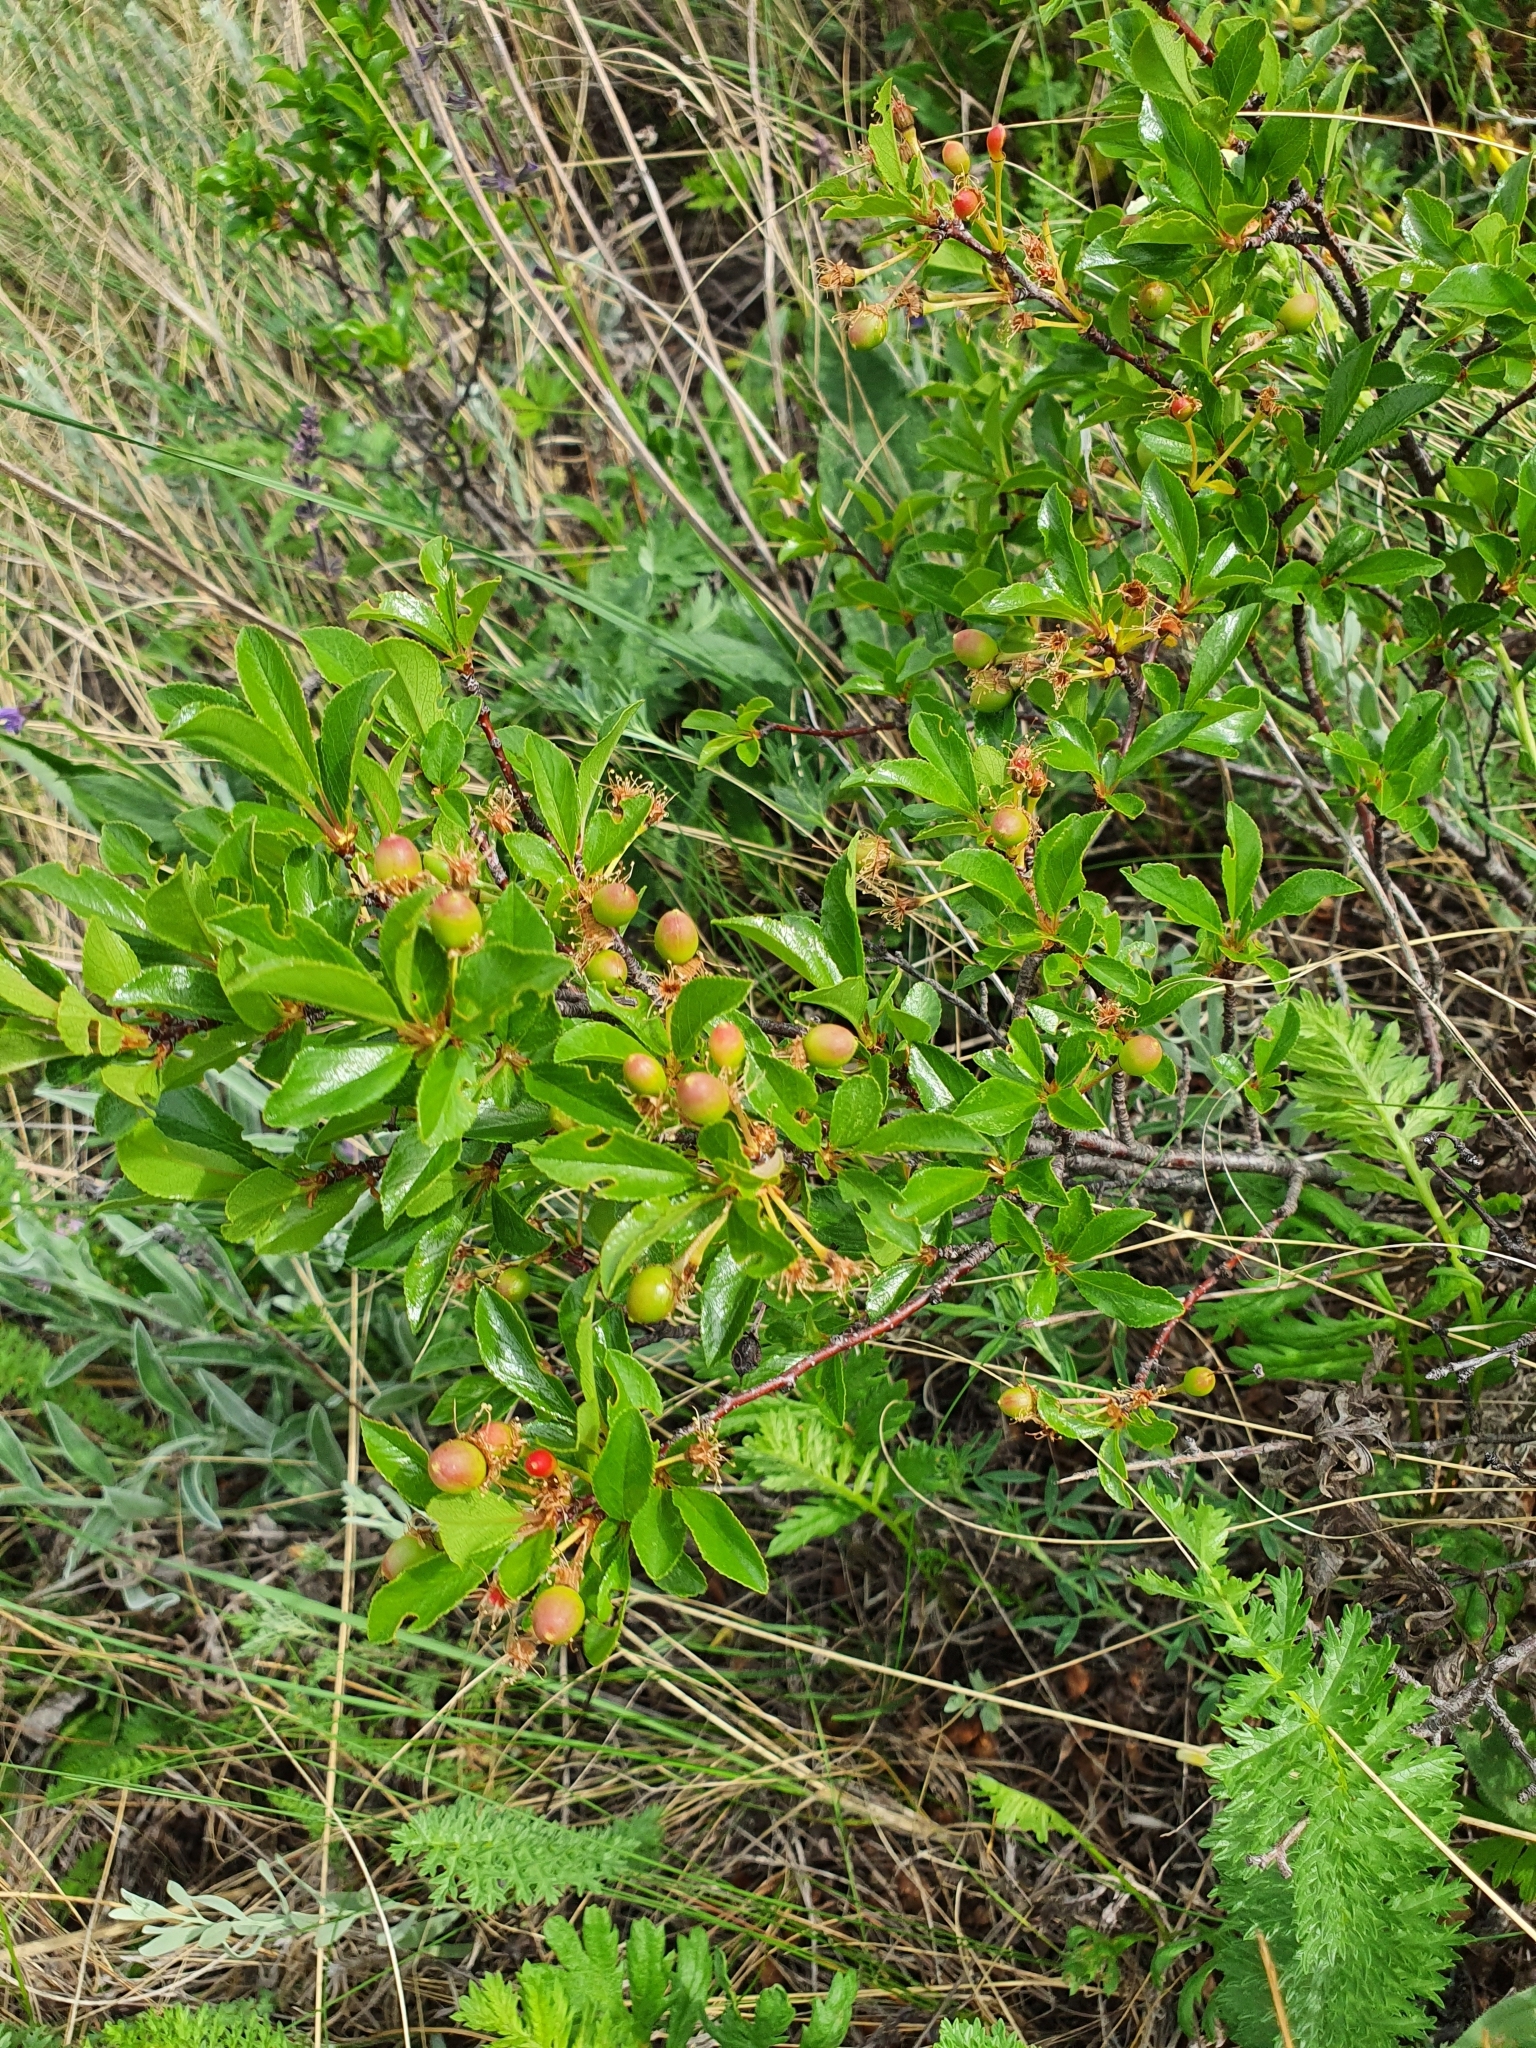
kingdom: Plantae
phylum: Tracheophyta
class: Magnoliopsida
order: Rosales
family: Rosaceae
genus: Prunus
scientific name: Prunus fruticosa
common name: European dwarf cherry
